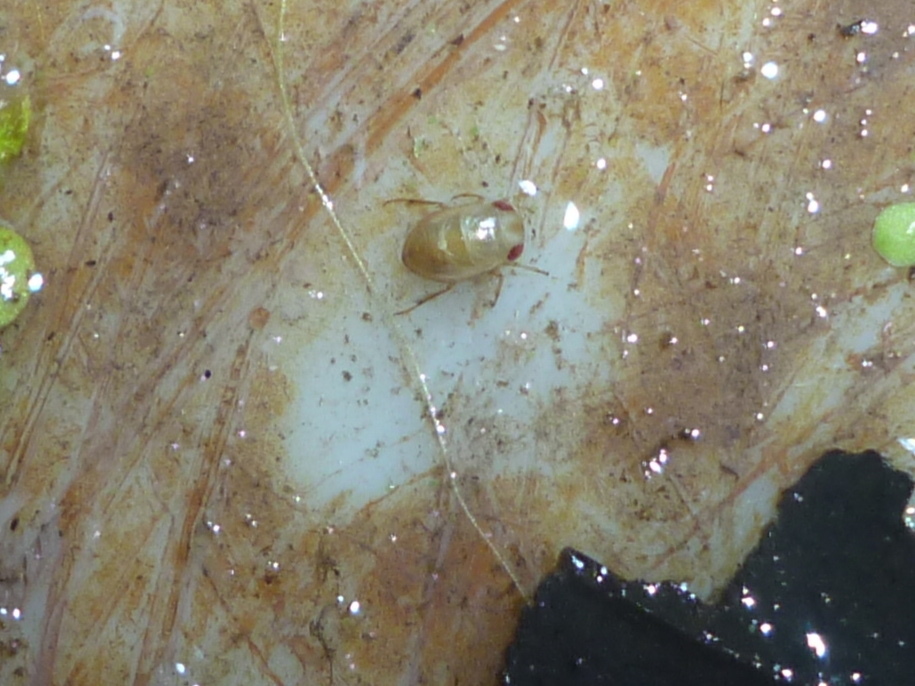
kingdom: Animalia
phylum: Arthropoda
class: Insecta
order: Hemiptera
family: Pleidae
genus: Neoplea
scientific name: Neoplea striola
